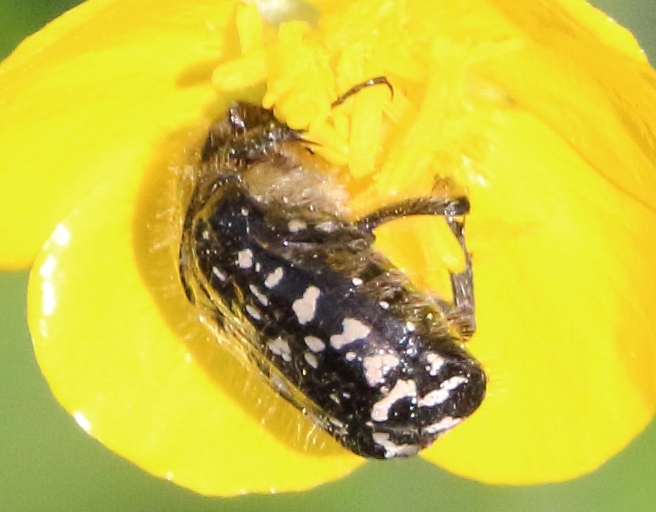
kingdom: Animalia
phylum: Arthropoda
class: Insecta
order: Coleoptera
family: Scarabaeidae
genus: Oxythyrea
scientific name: Oxythyrea funesta
